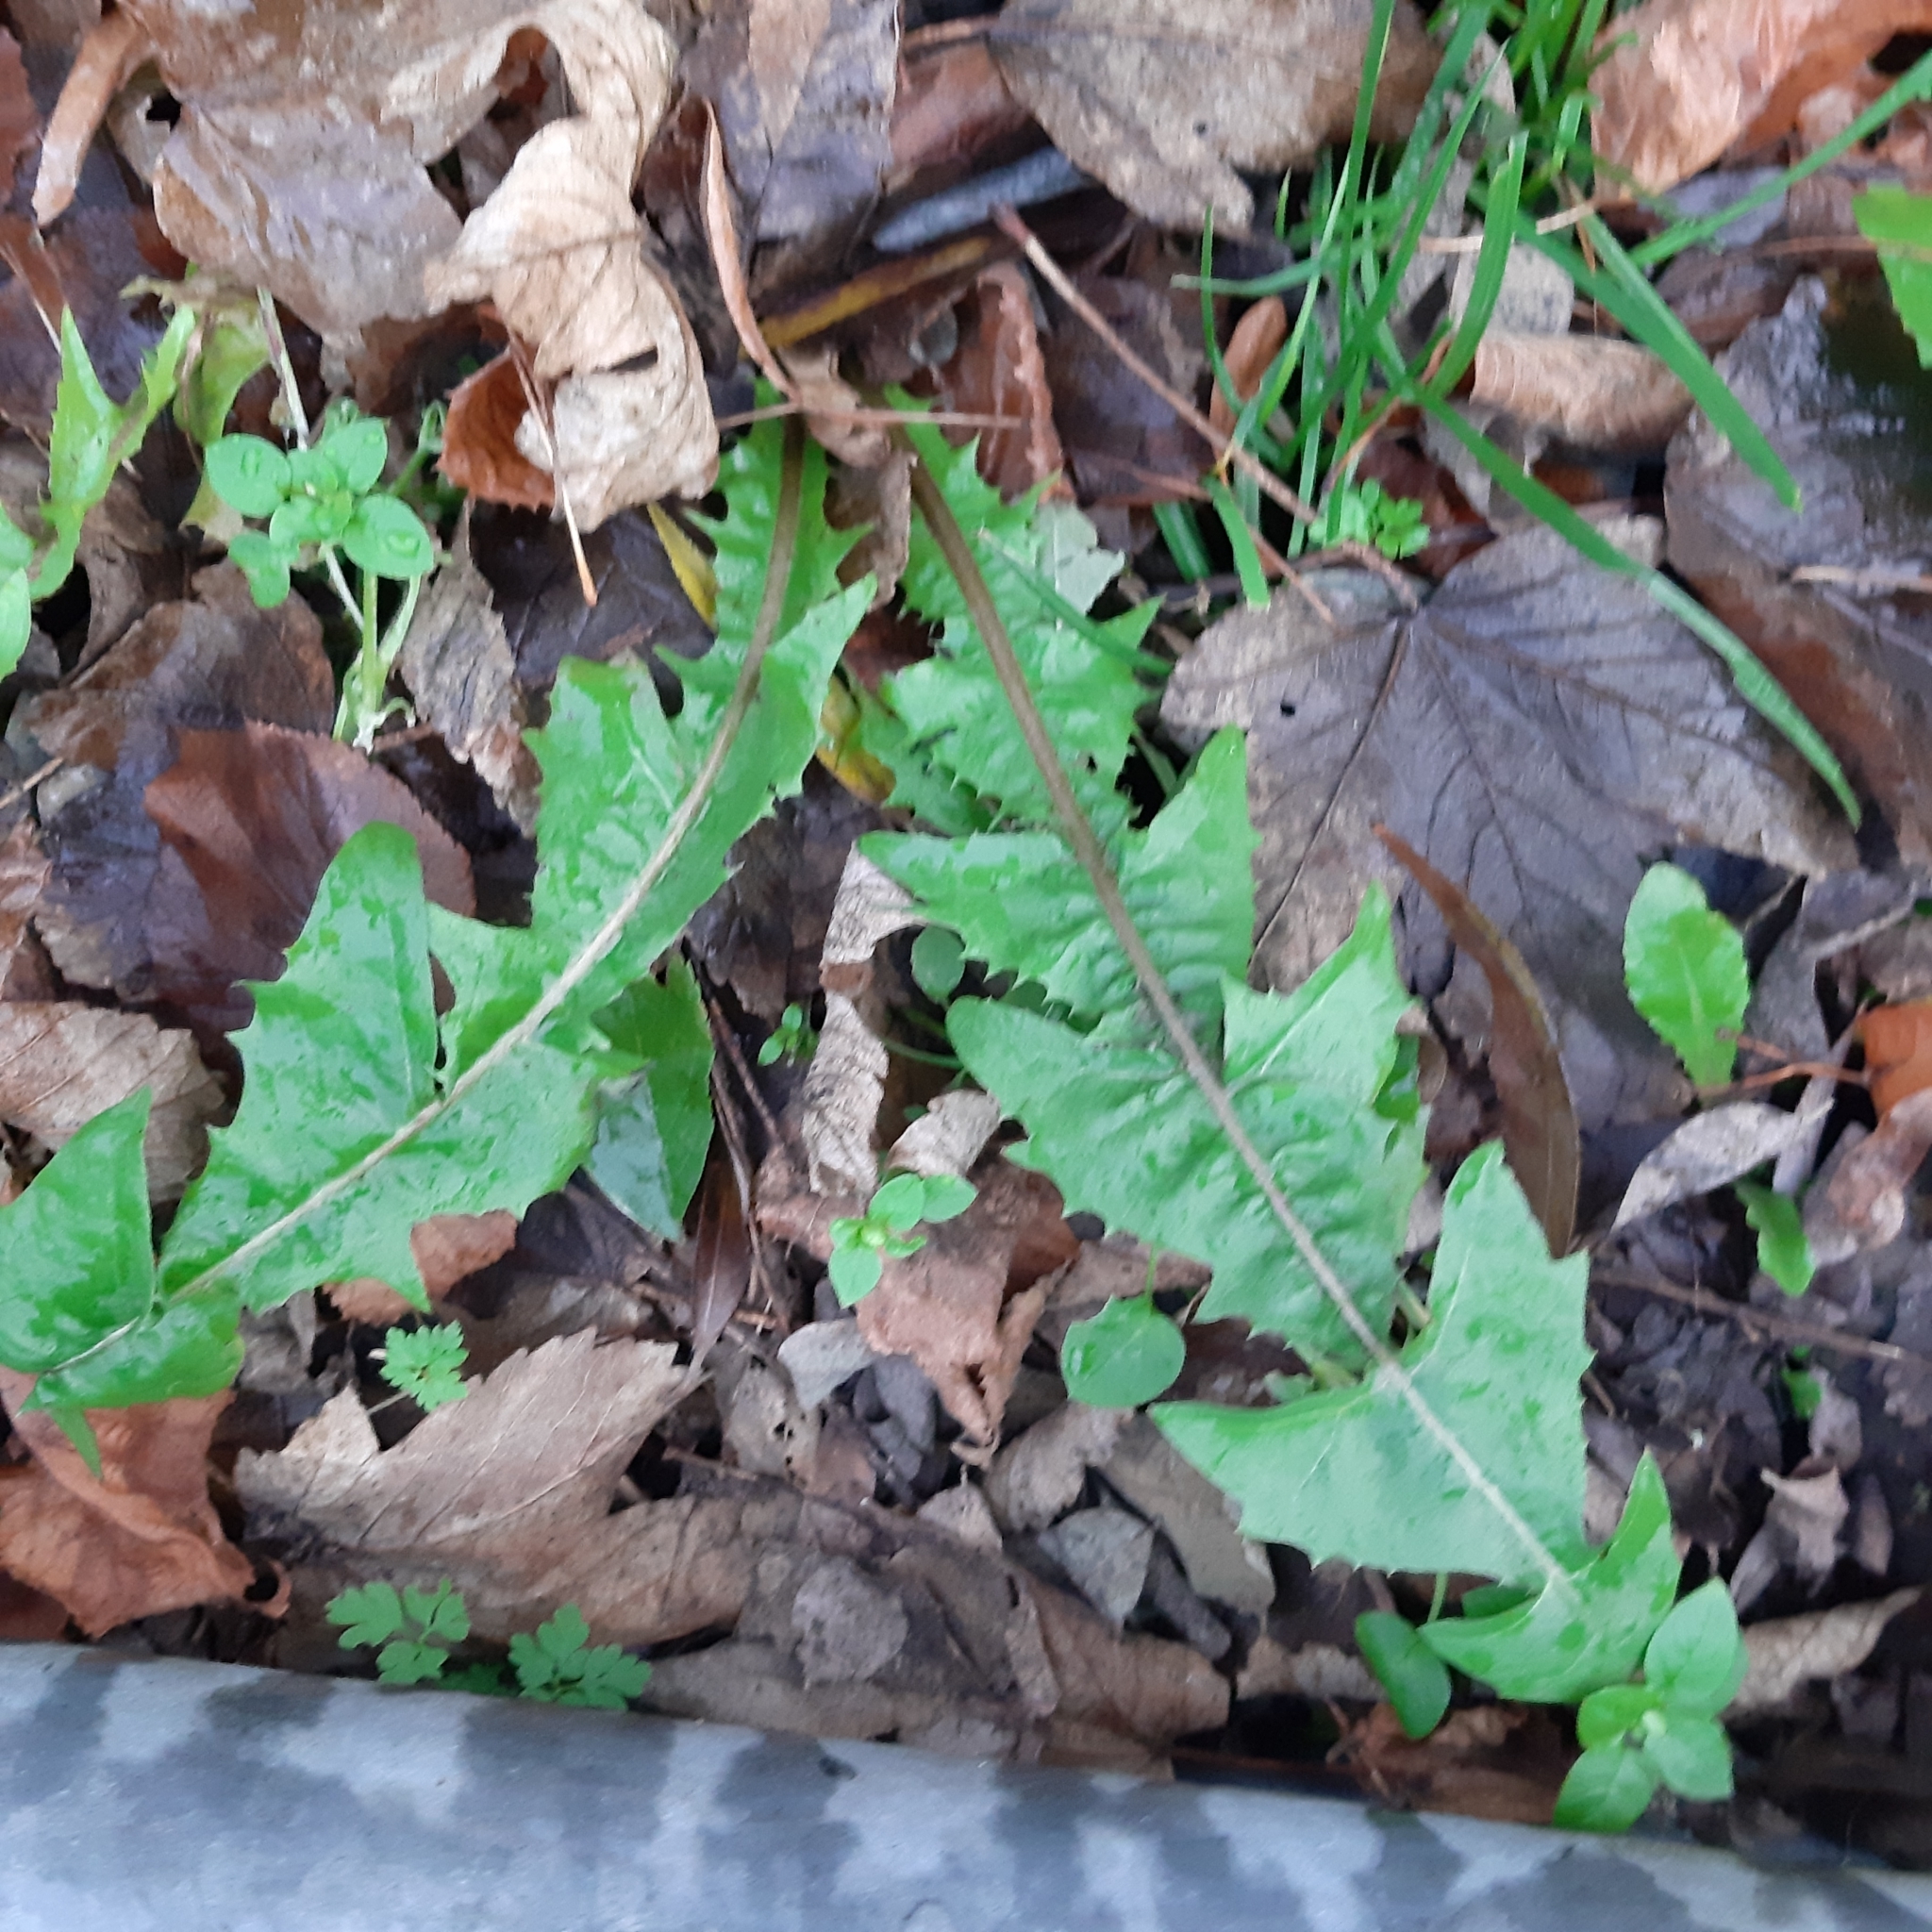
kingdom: Plantae
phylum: Tracheophyta
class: Magnoliopsida
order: Asterales
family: Asteraceae
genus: Taraxacum
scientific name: Taraxacum officinale
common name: Common dandelion
